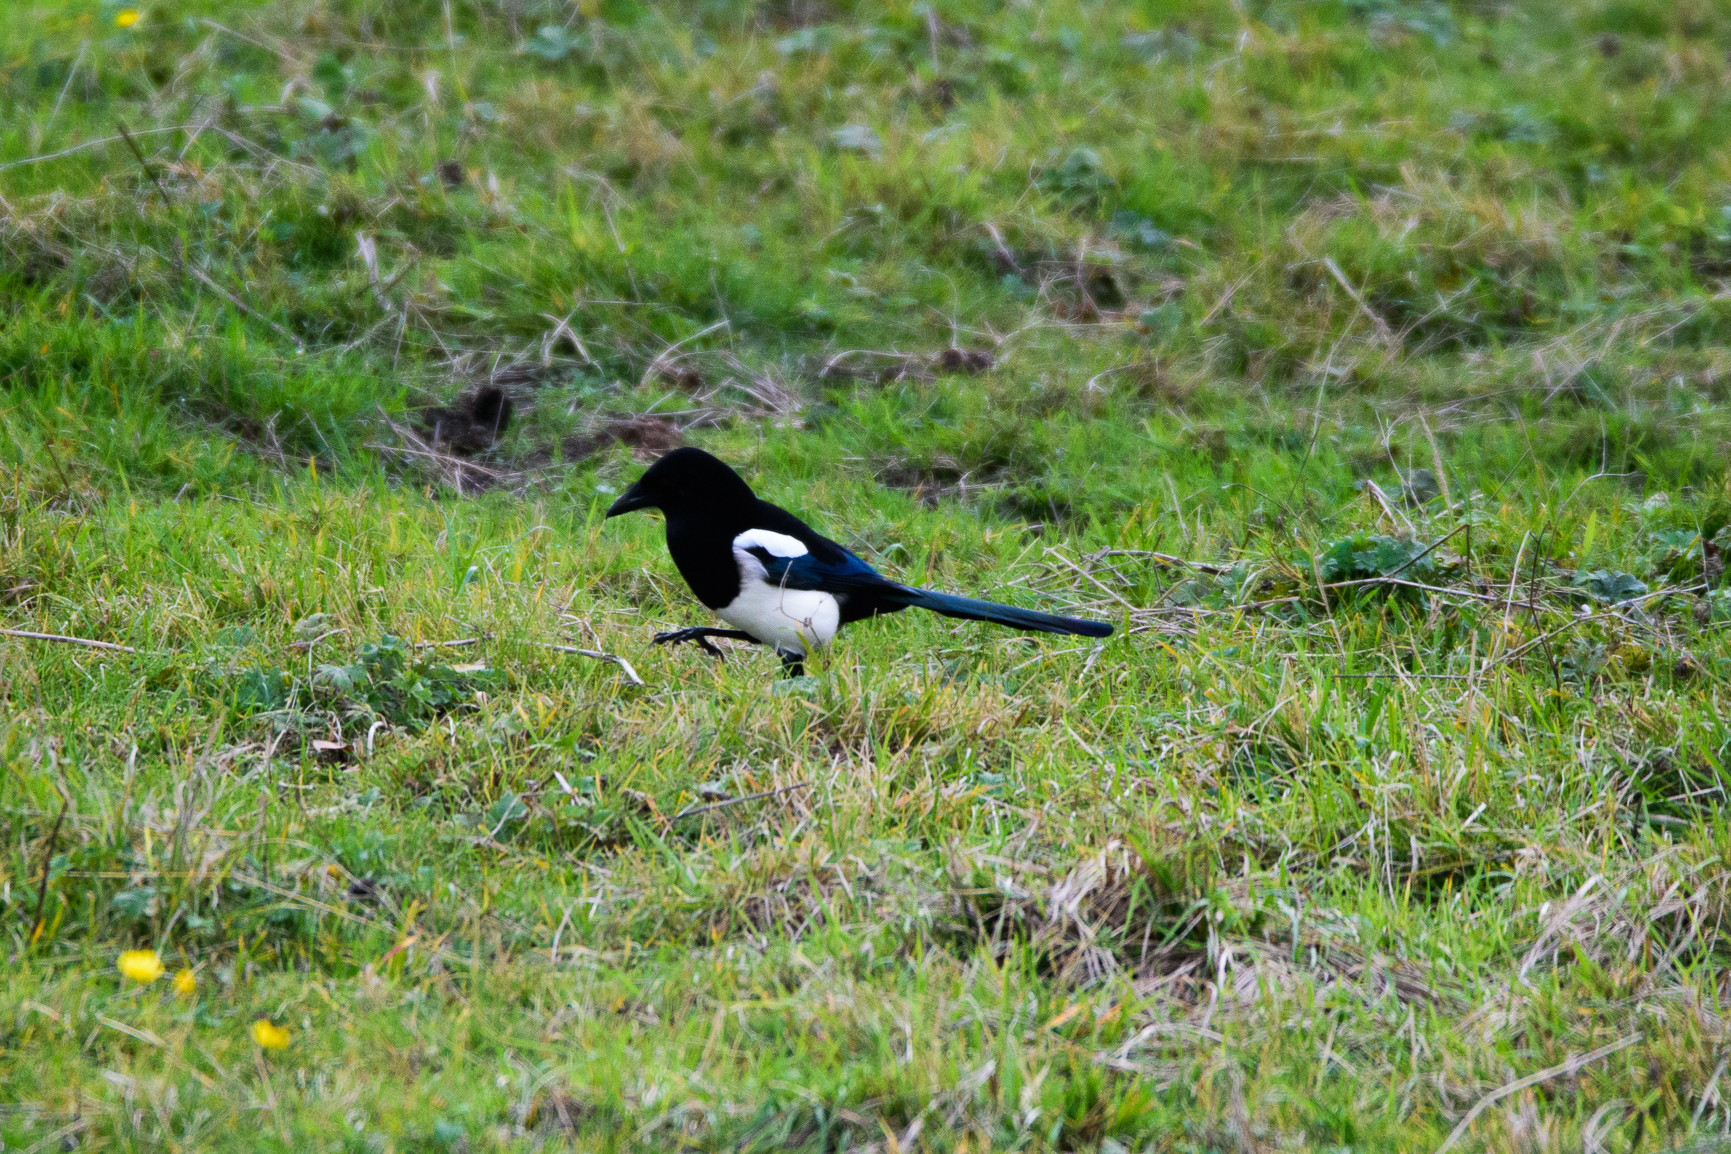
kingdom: Animalia
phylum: Chordata
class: Aves
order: Passeriformes
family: Corvidae
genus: Pica
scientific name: Pica pica
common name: Eurasian magpie
